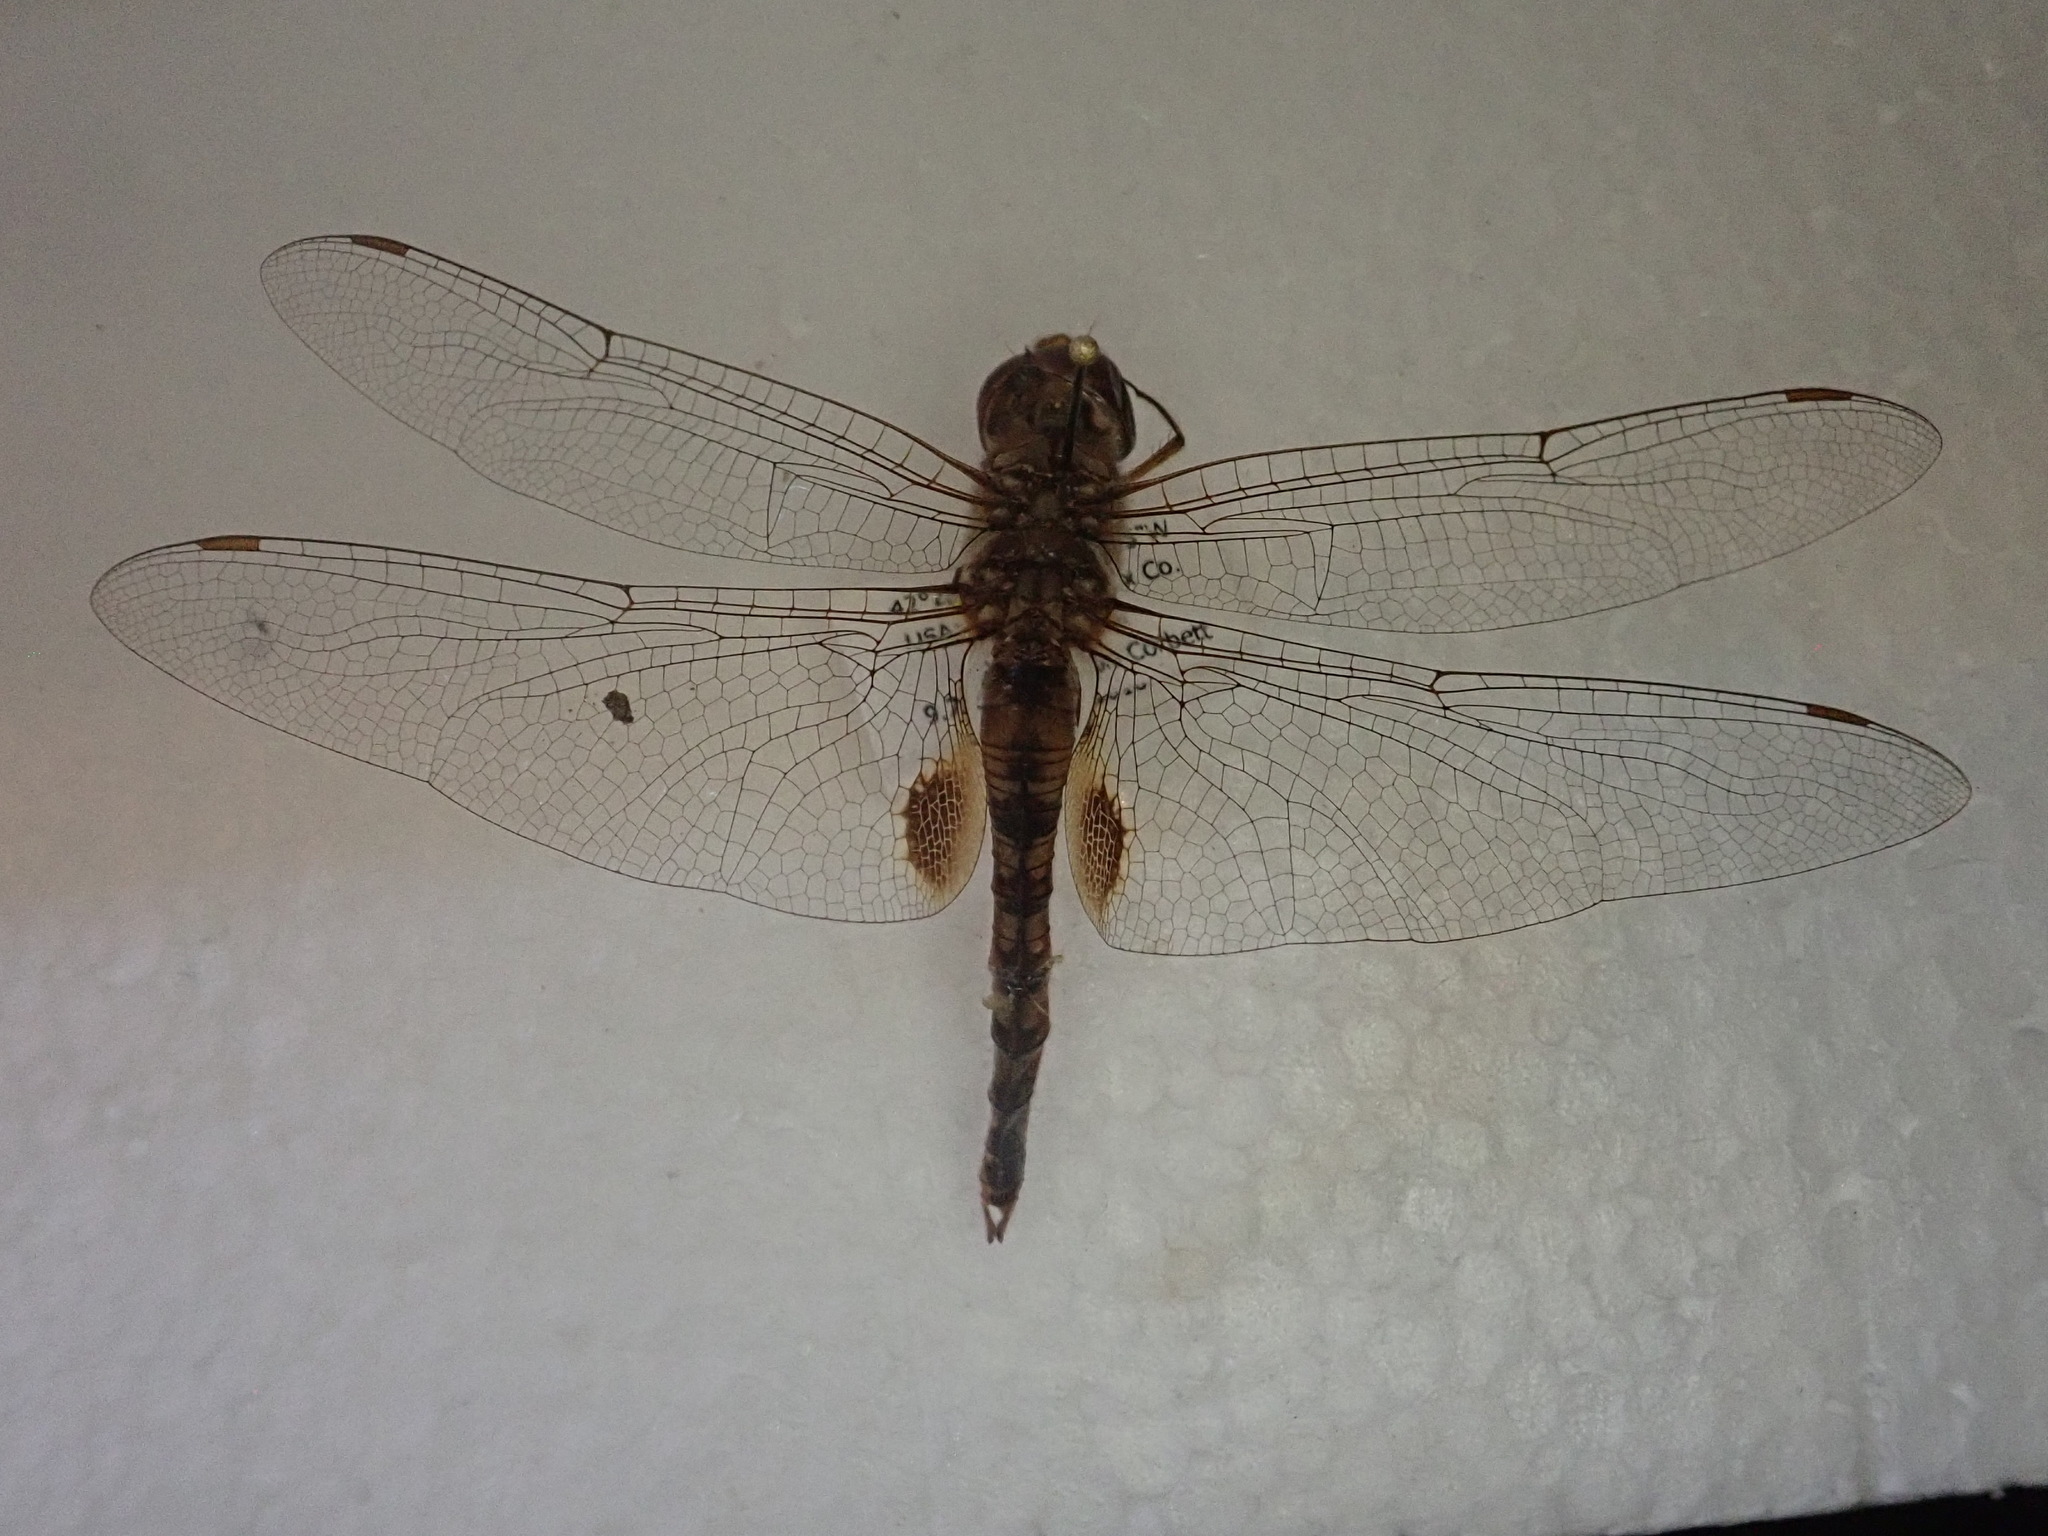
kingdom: Animalia
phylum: Arthropoda
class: Insecta
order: Odonata
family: Libellulidae
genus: Pantala
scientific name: Pantala hymenaea
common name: Spot-winged glider
